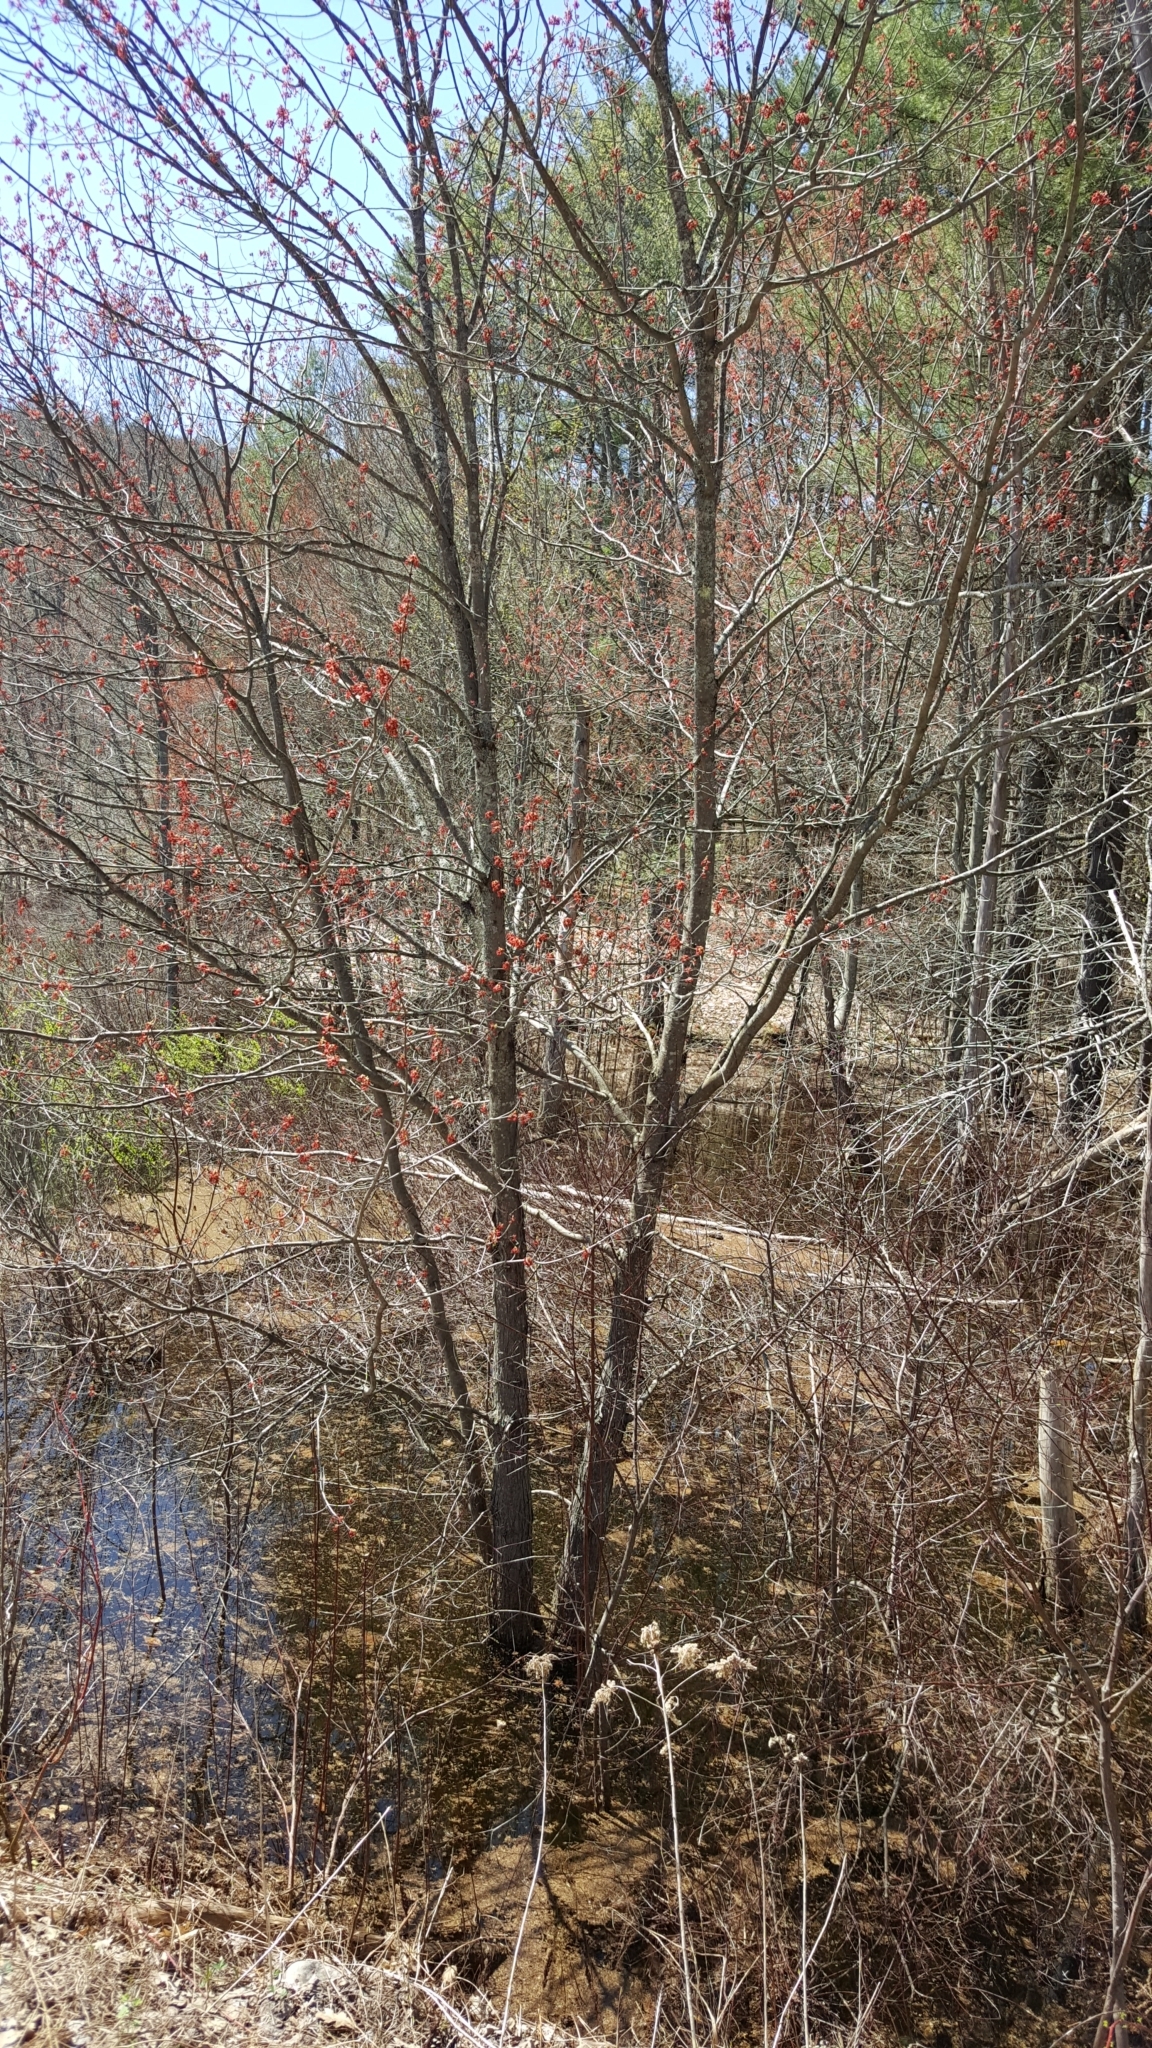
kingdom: Plantae
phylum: Tracheophyta
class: Magnoliopsida
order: Sapindales
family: Sapindaceae
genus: Acer
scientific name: Acer rubrum
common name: Red maple
